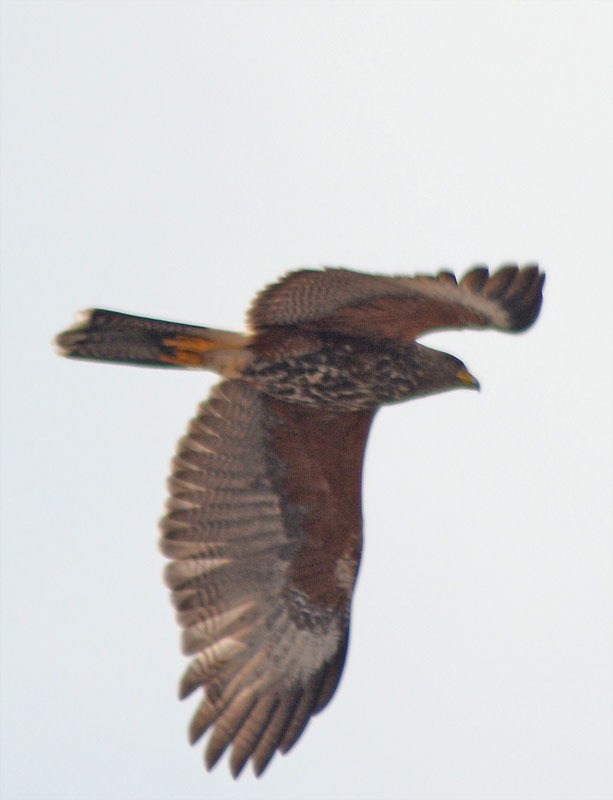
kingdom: Animalia
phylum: Chordata
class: Aves
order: Accipitriformes
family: Accipitridae
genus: Parabuteo
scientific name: Parabuteo unicinctus
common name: Harris's hawk
